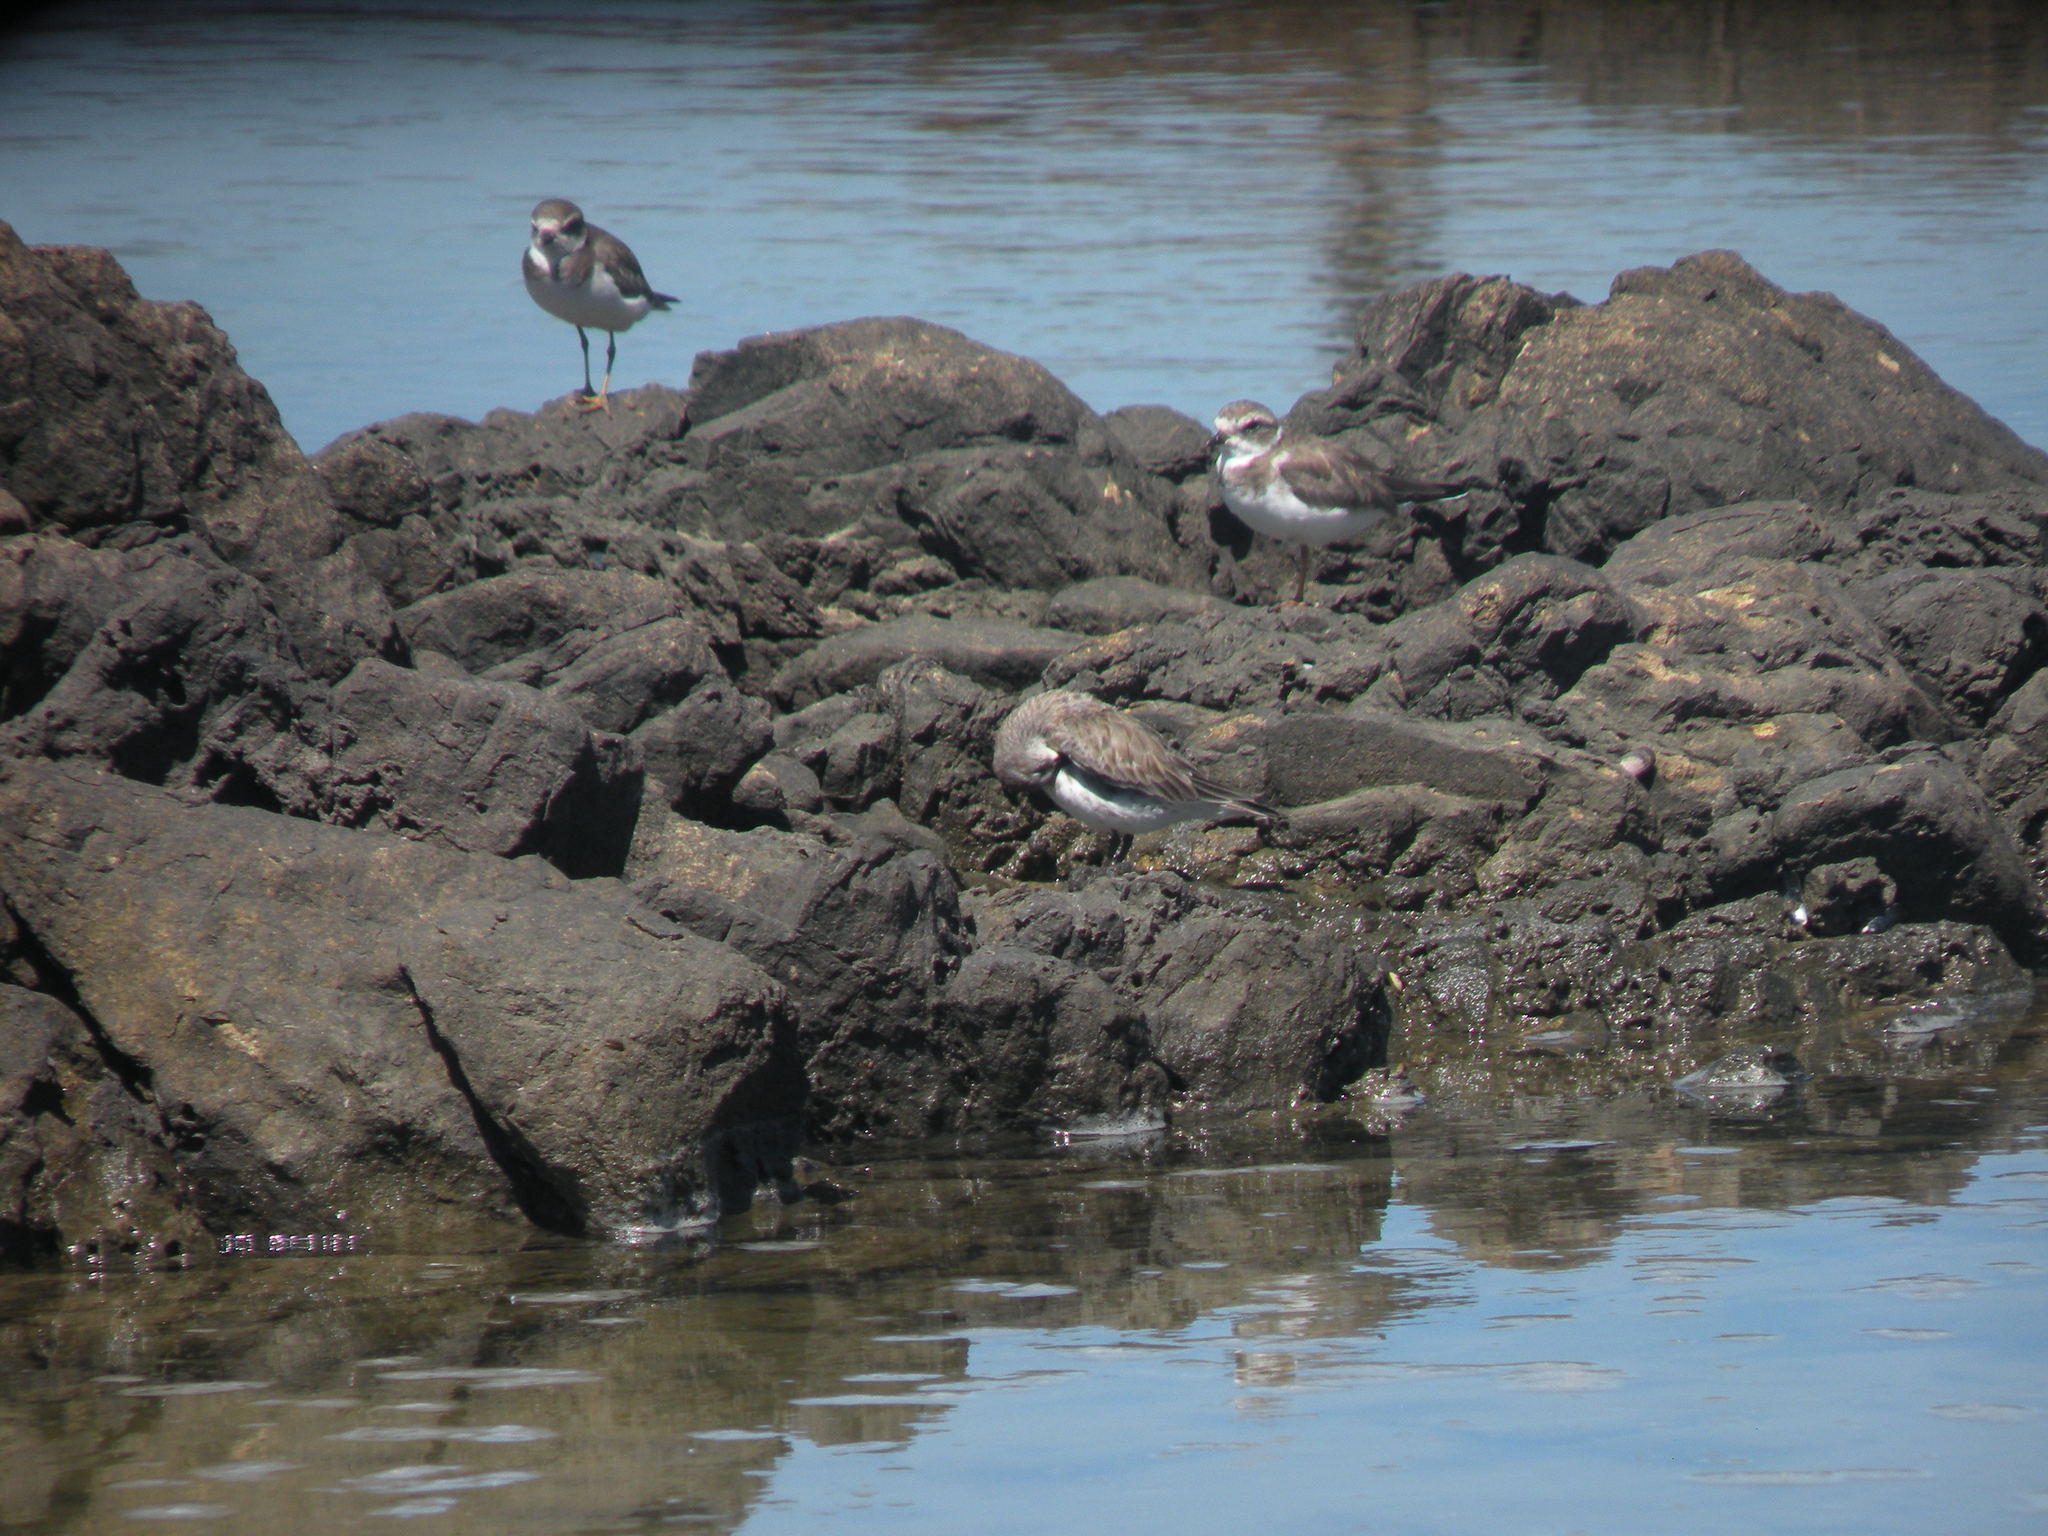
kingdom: Animalia
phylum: Chordata
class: Aves
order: Charadriiformes
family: Scolopacidae
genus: Calidris
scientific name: Calidris fuscicollis
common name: White-rumped sandpiper
